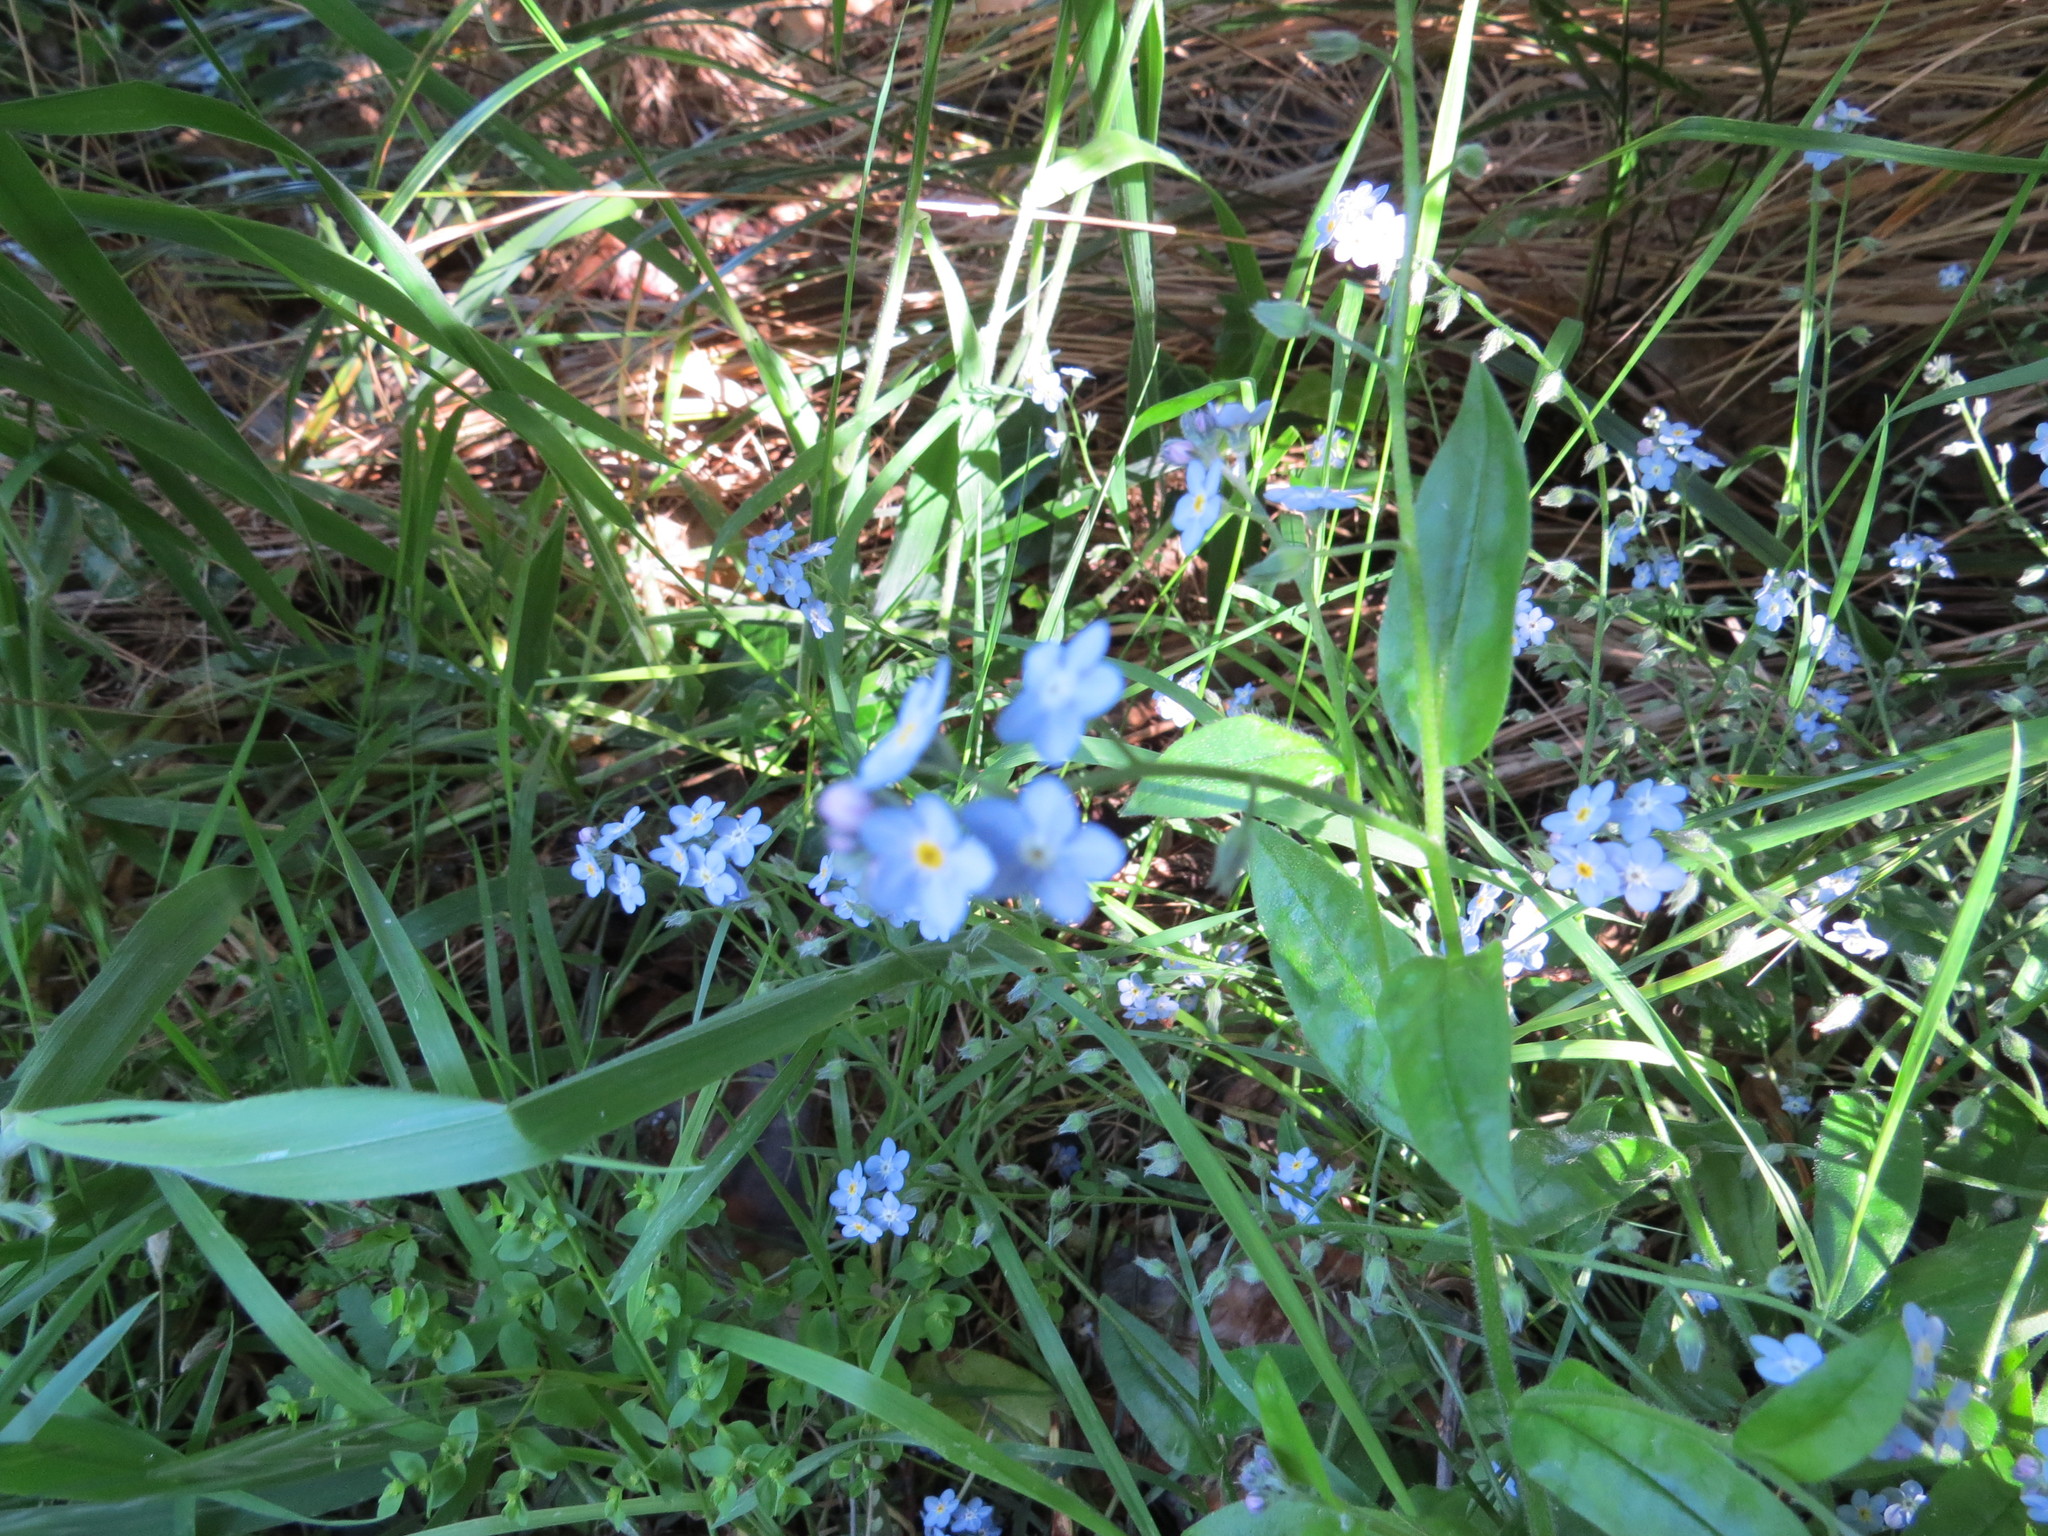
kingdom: Plantae
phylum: Tracheophyta
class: Magnoliopsida
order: Boraginales
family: Boraginaceae
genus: Myosotis
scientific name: Myosotis sylvatica
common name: Wood forget-me-not
